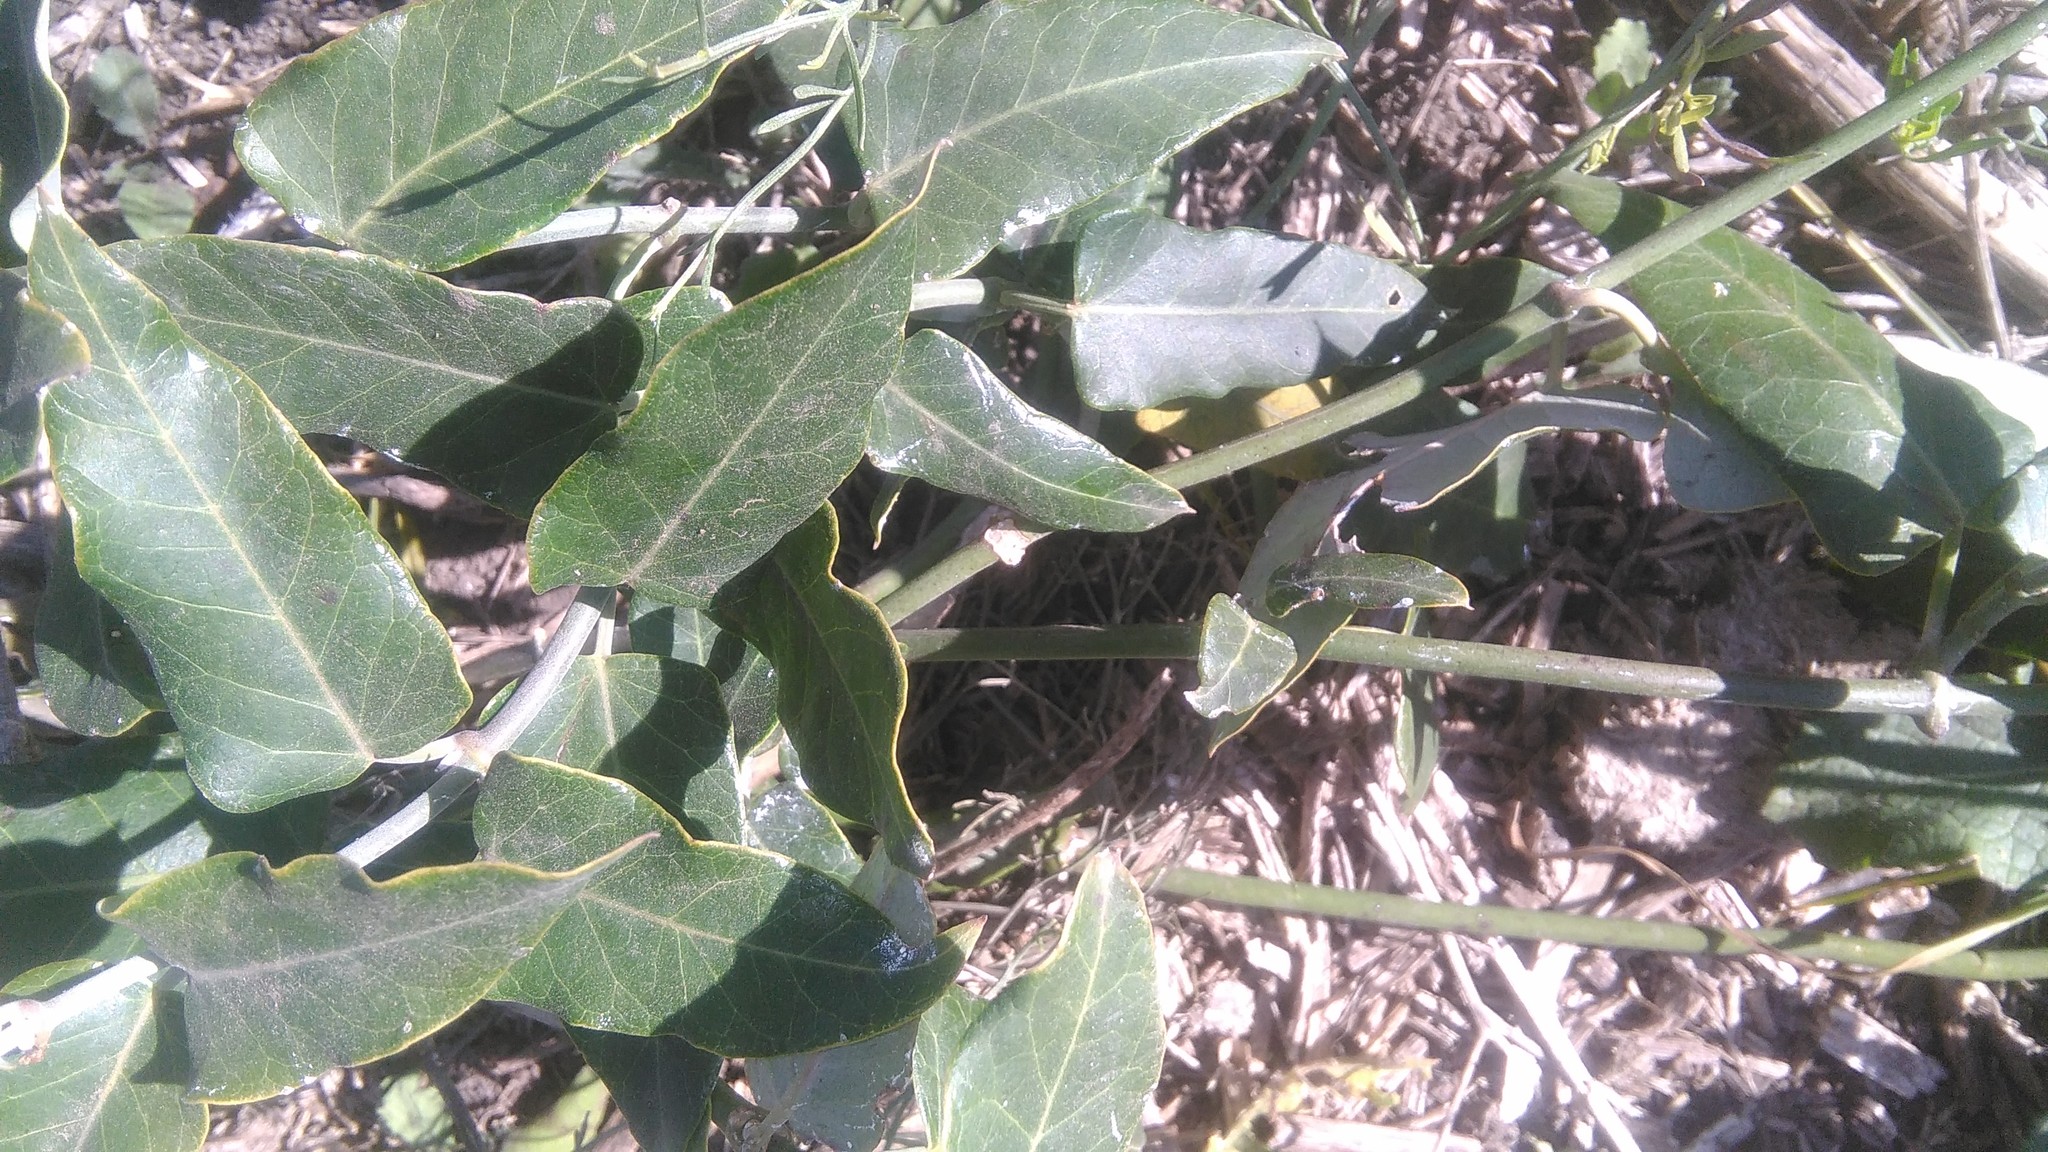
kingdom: Plantae
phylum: Tracheophyta
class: Magnoliopsida
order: Gentianales
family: Apocynaceae
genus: Araujia
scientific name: Araujia sericifera
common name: White bladderflower
